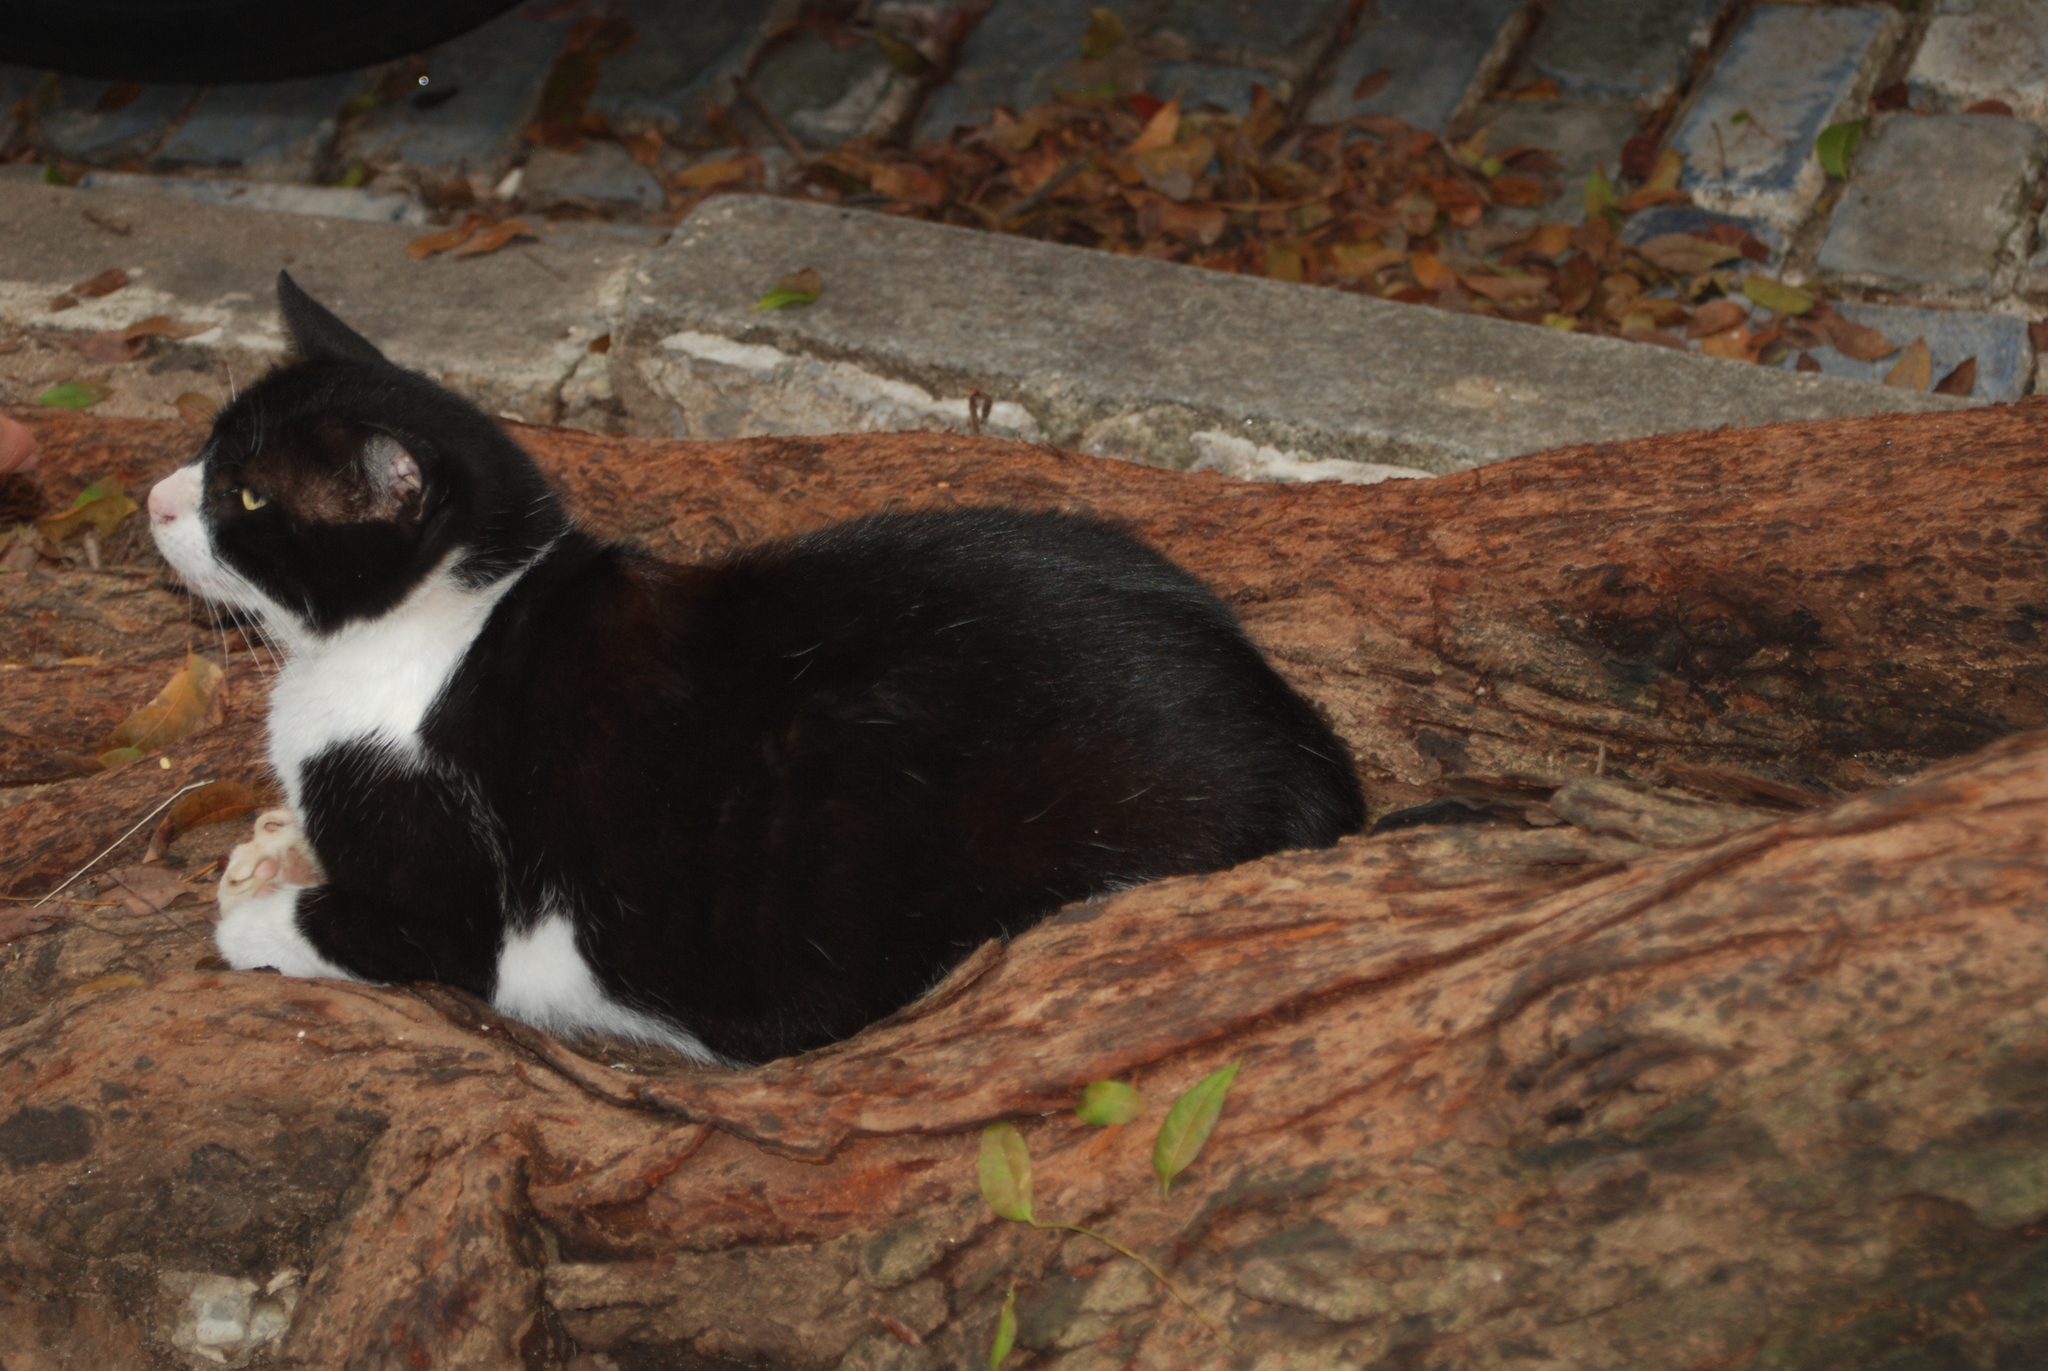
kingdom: Animalia
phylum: Chordata
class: Mammalia
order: Carnivora
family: Felidae
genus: Felis
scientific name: Felis catus
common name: Domestic cat
